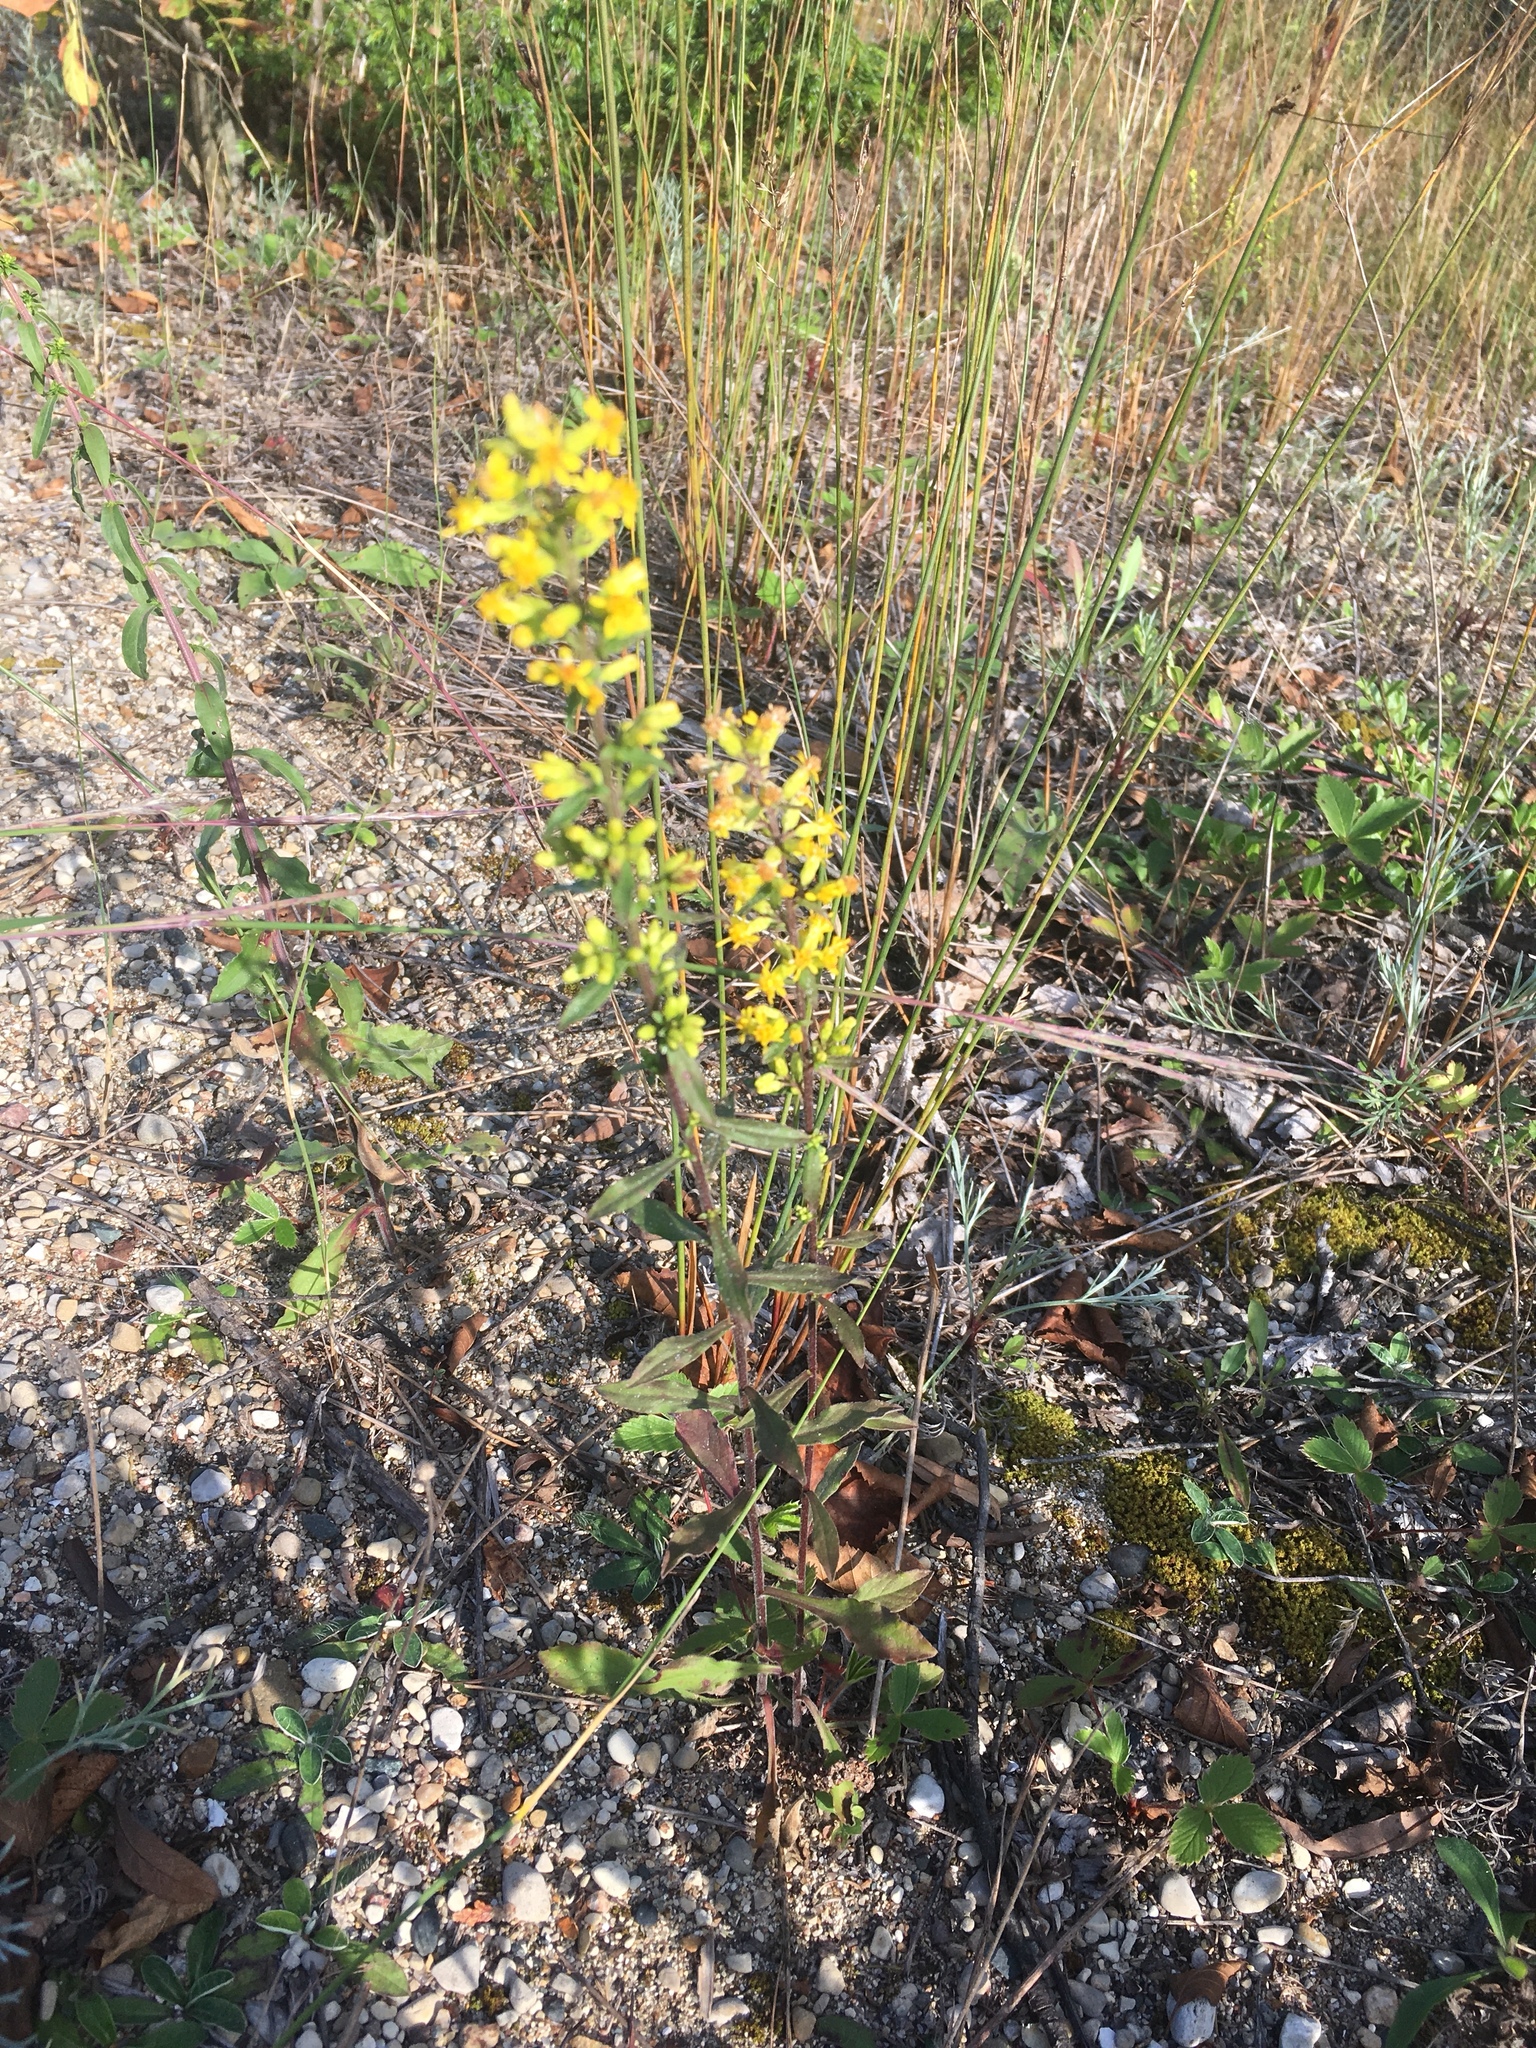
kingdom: Plantae
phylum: Tracheophyta
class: Magnoliopsida
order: Asterales
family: Asteraceae
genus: Solidago
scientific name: Solidago hispida
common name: Hairy goldenrod
